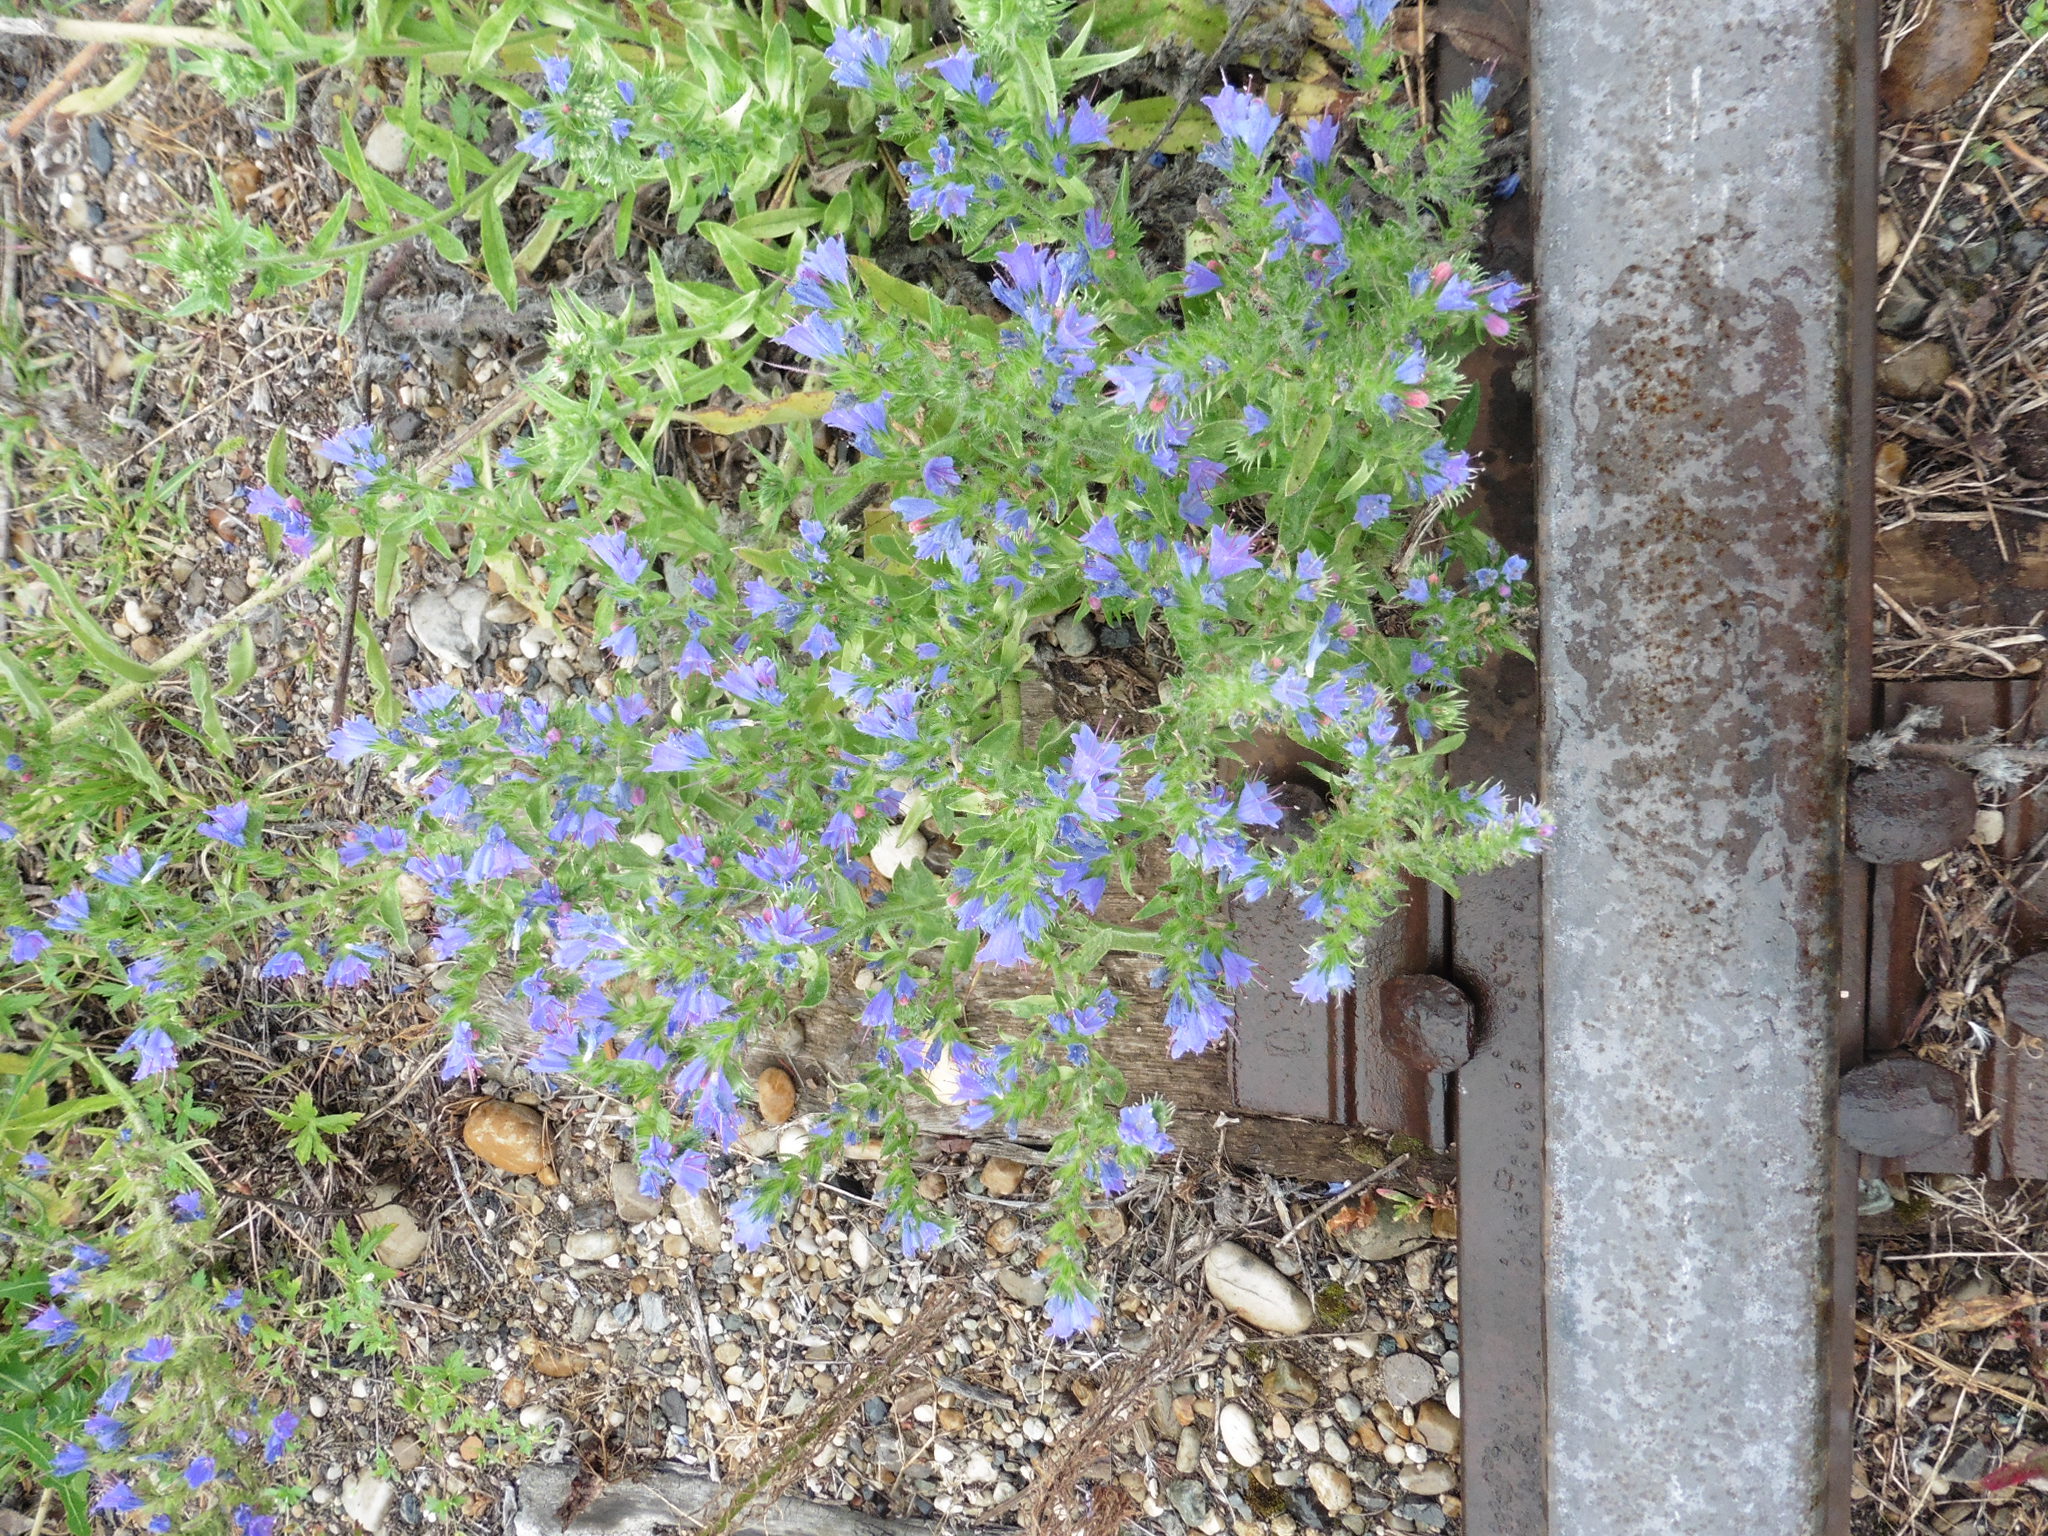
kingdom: Plantae
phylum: Tracheophyta
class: Magnoliopsida
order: Boraginales
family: Boraginaceae
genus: Echium
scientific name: Echium vulgare
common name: Common viper's bugloss
